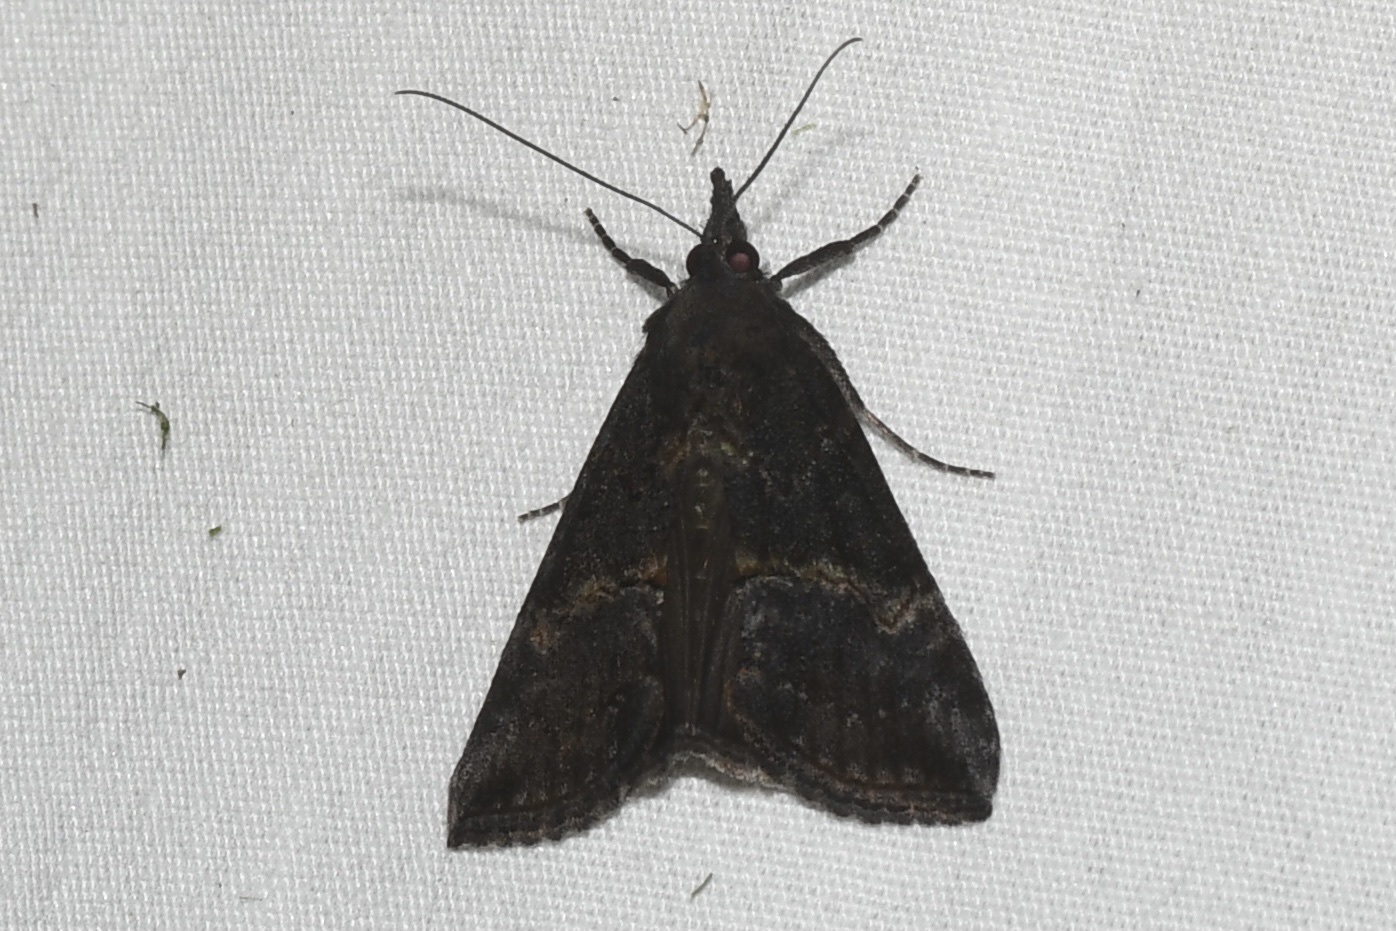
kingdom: Animalia
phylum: Arthropoda
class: Insecta
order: Lepidoptera
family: Erebidae
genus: Hypena
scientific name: Hypena scabra
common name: Green cloverworm
